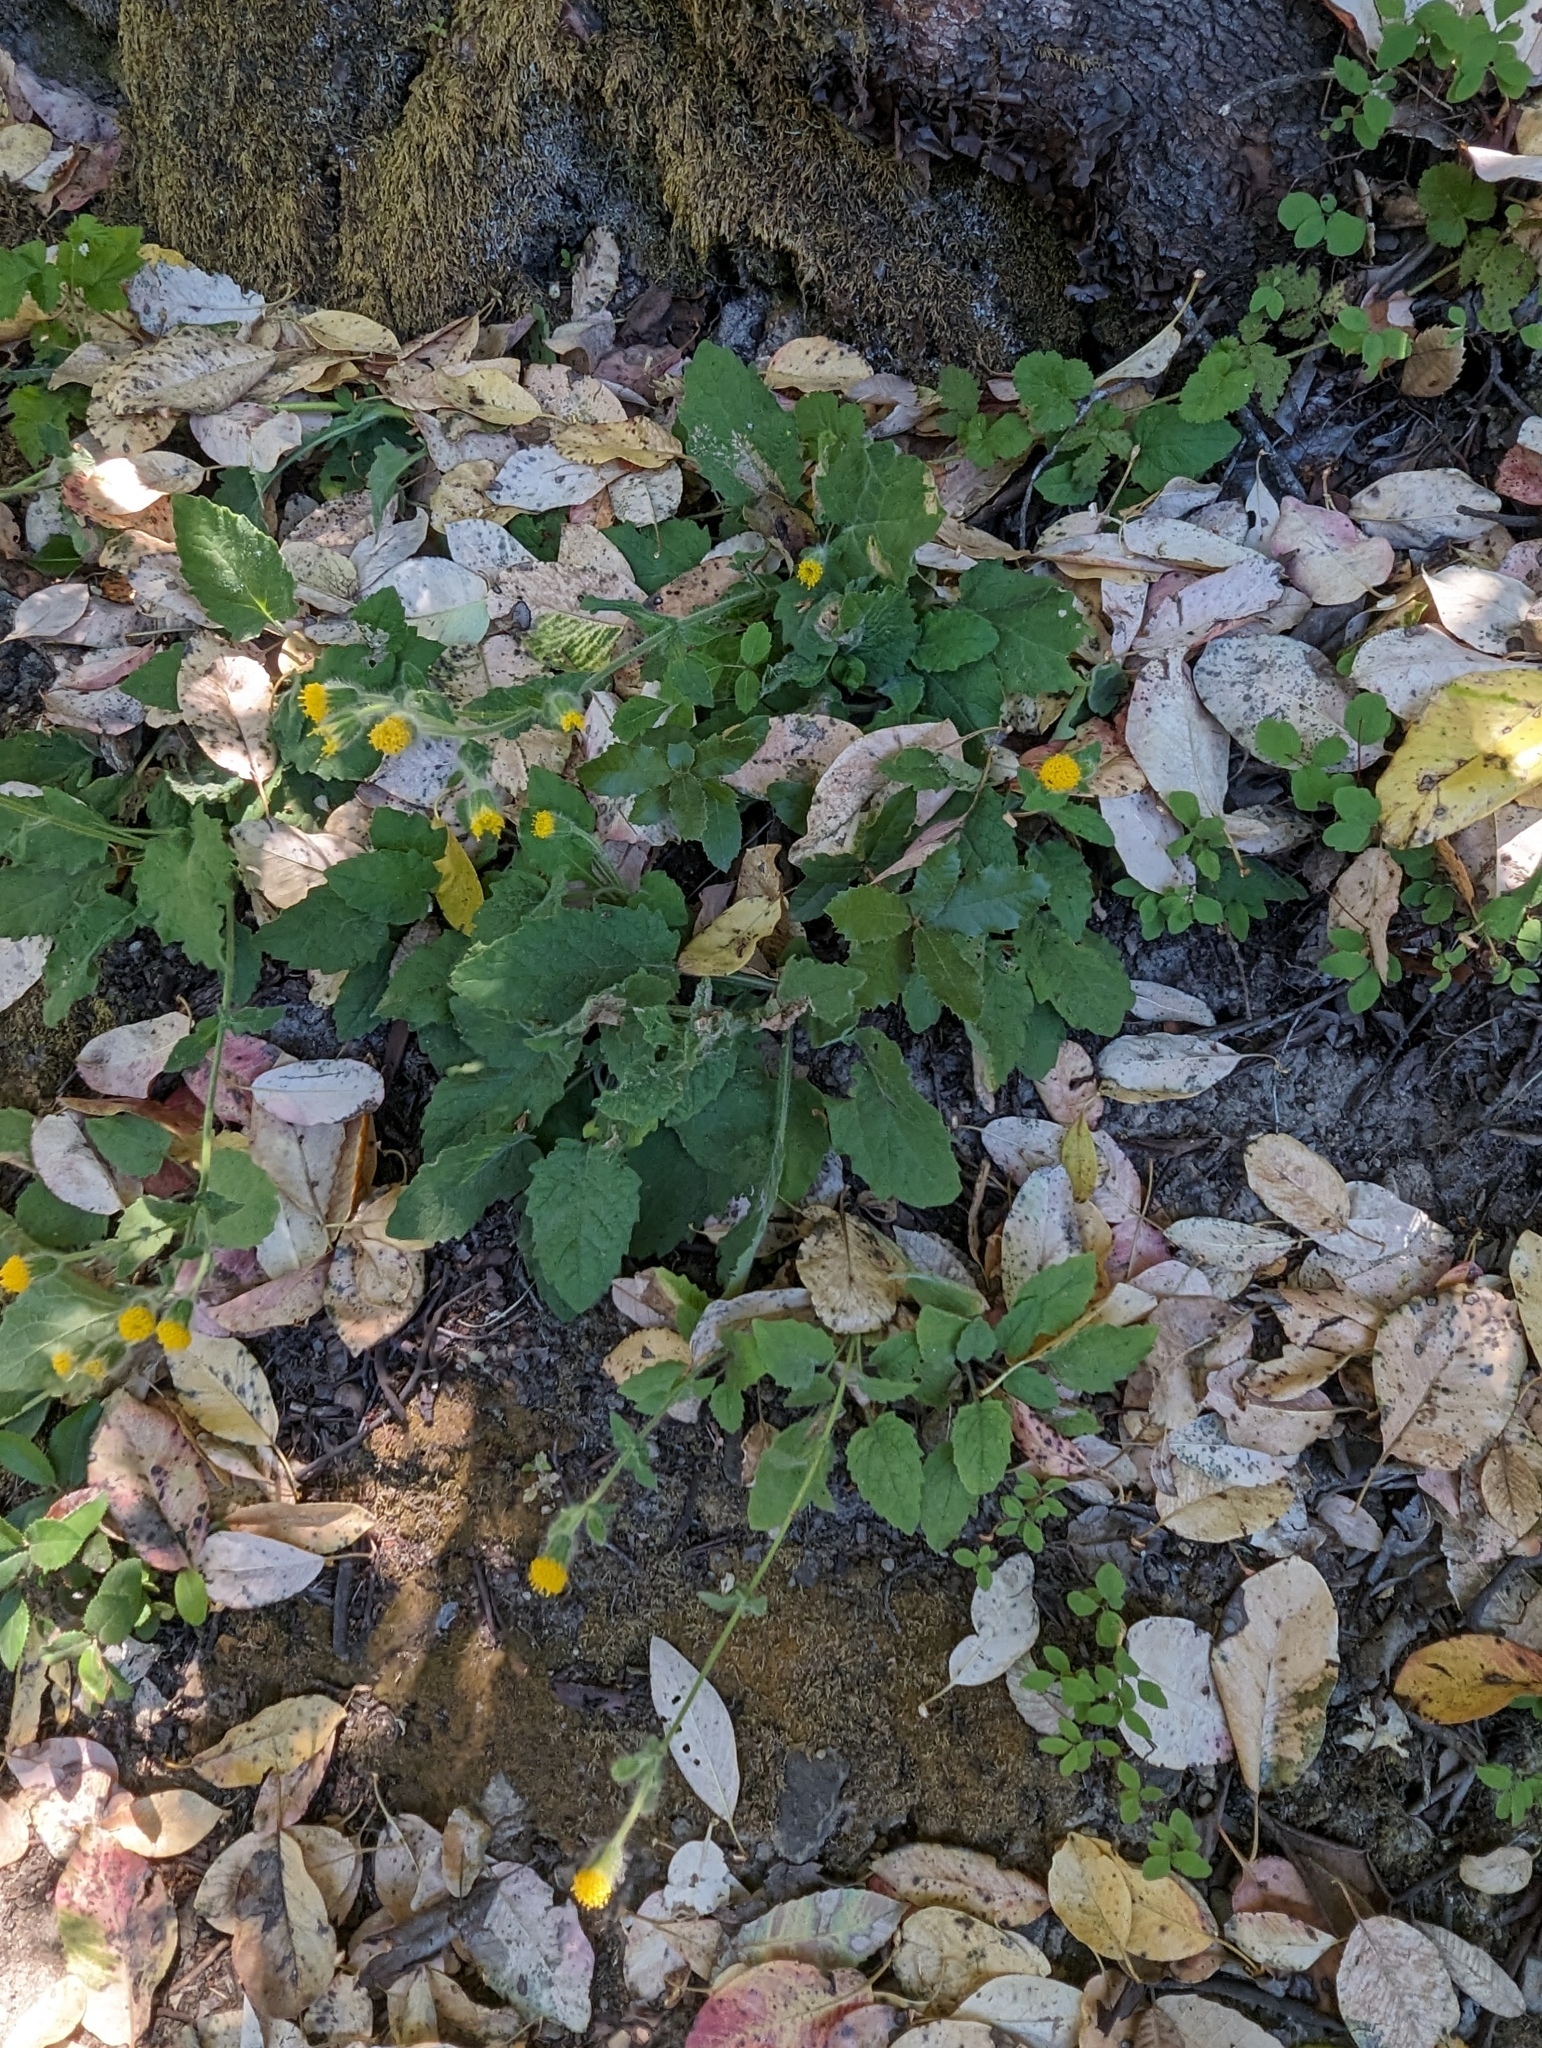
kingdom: Plantae
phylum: Tracheophyta
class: Magnoliopsida
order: Asterales
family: Asteraceae
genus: Arnica
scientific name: Arnica discoidea
